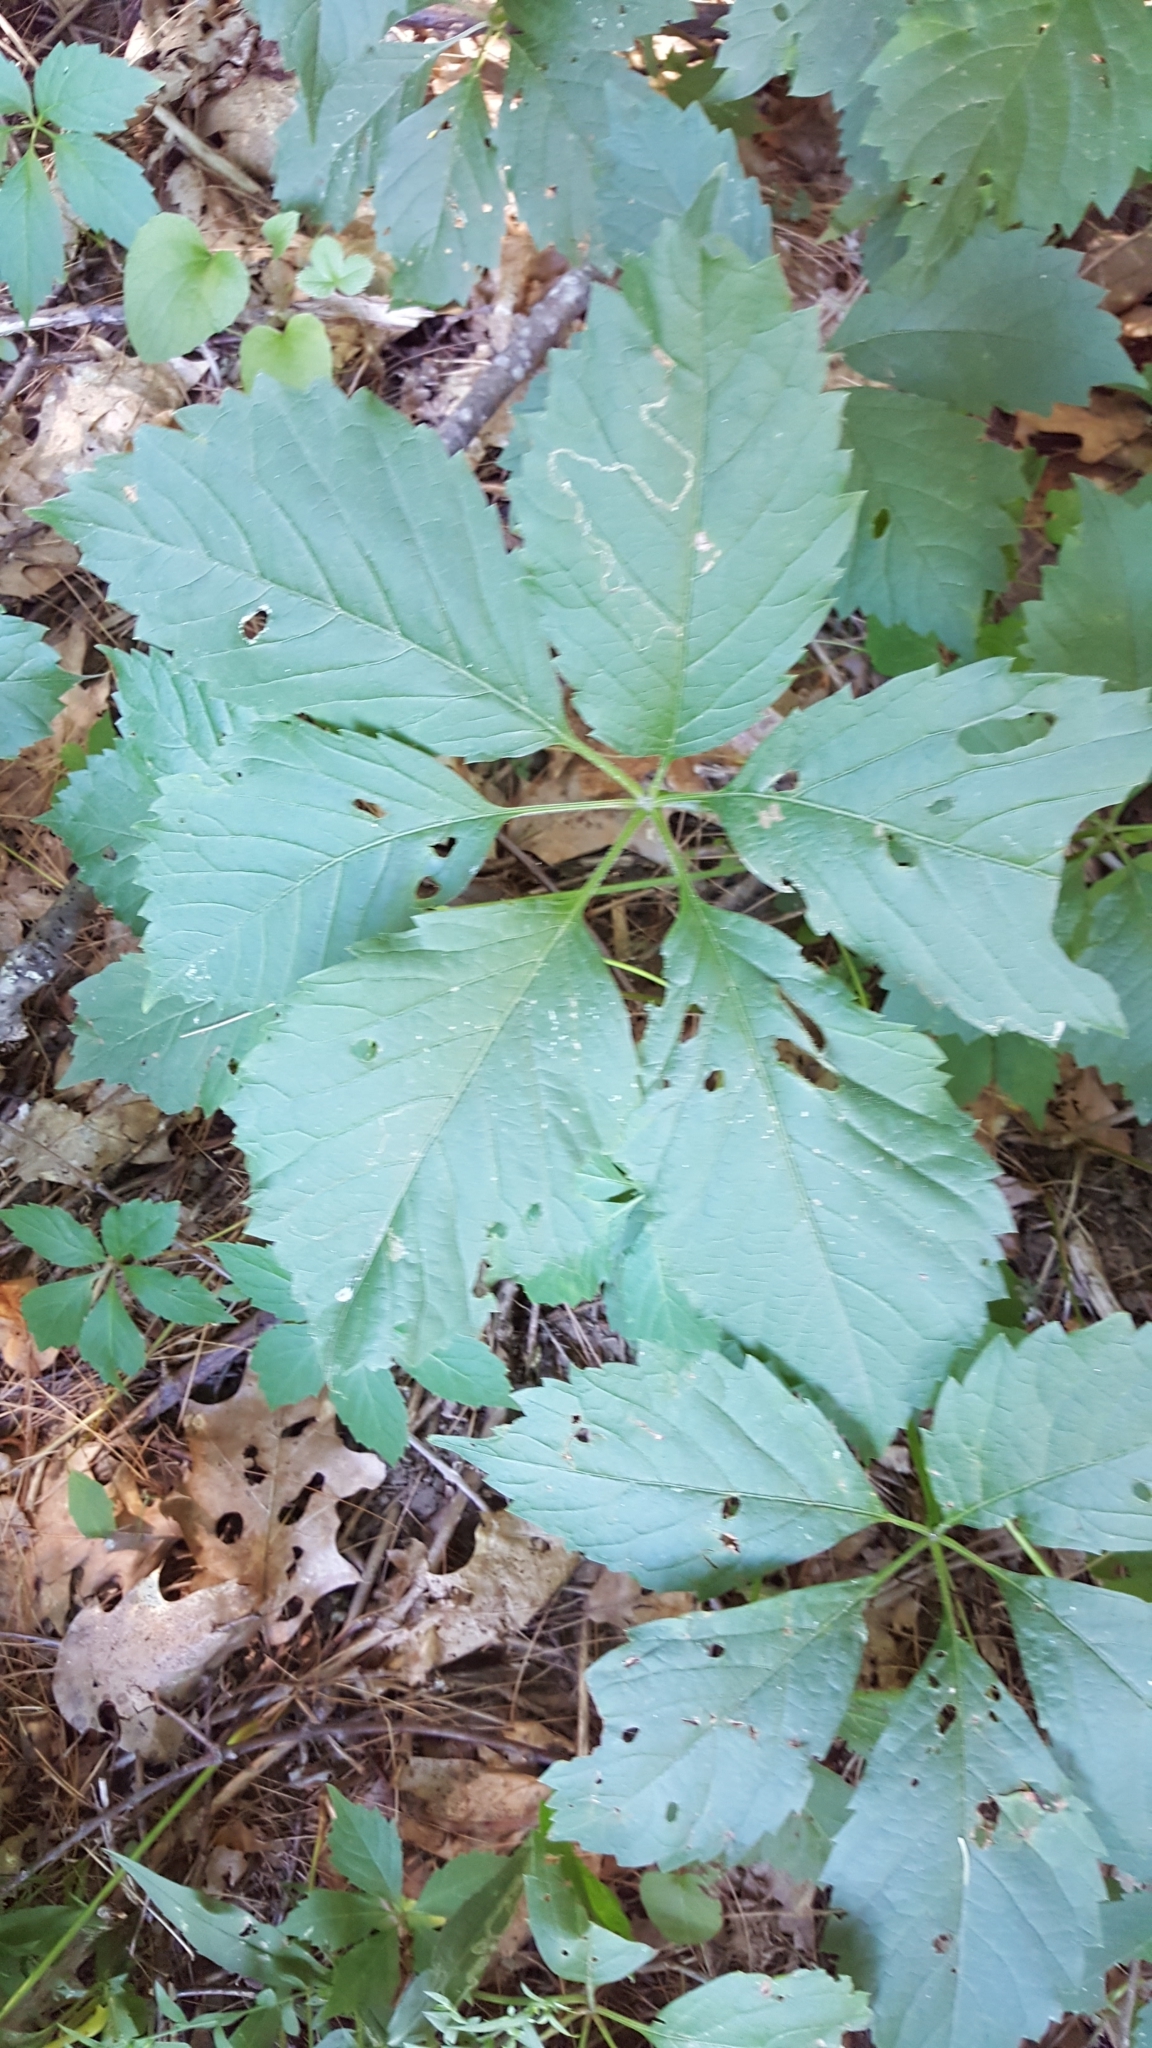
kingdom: Plantae
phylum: Tracheophyta
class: Magnoliopsida
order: Vitales
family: Vitaceae
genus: Parthenocissus
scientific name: Parthenocissus inserta
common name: False virginia-creeper
